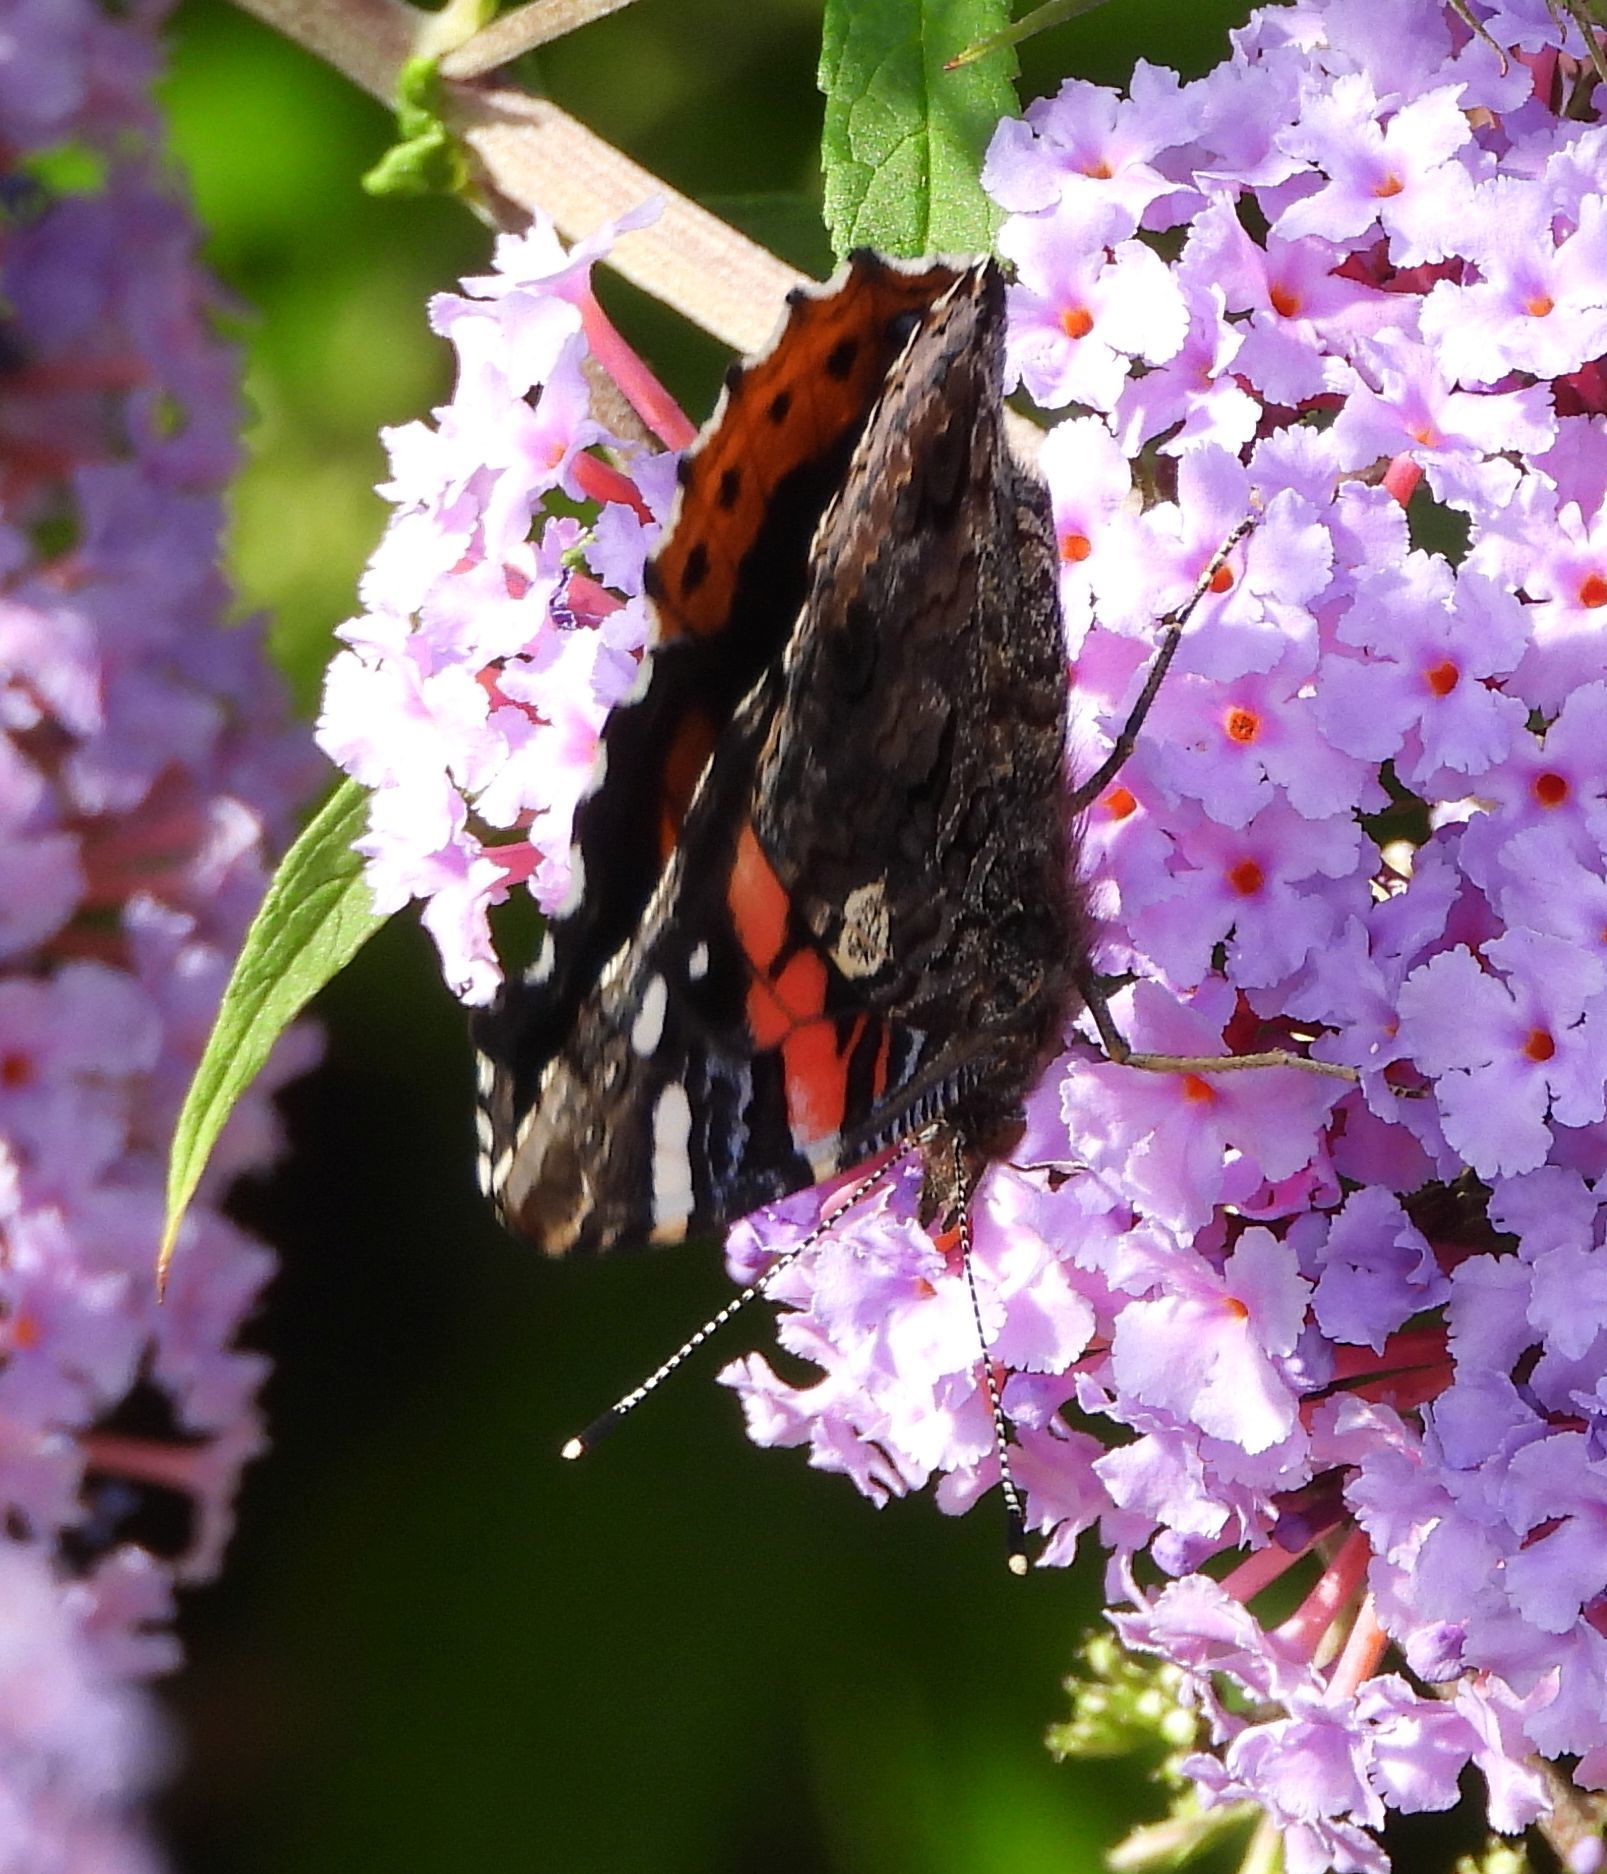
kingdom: Animalia
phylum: Arthropoda
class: Insecta
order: Lepidoptera
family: Nymphalidae
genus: Vanessa
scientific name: Vanessa atalanta
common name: Red admiral
